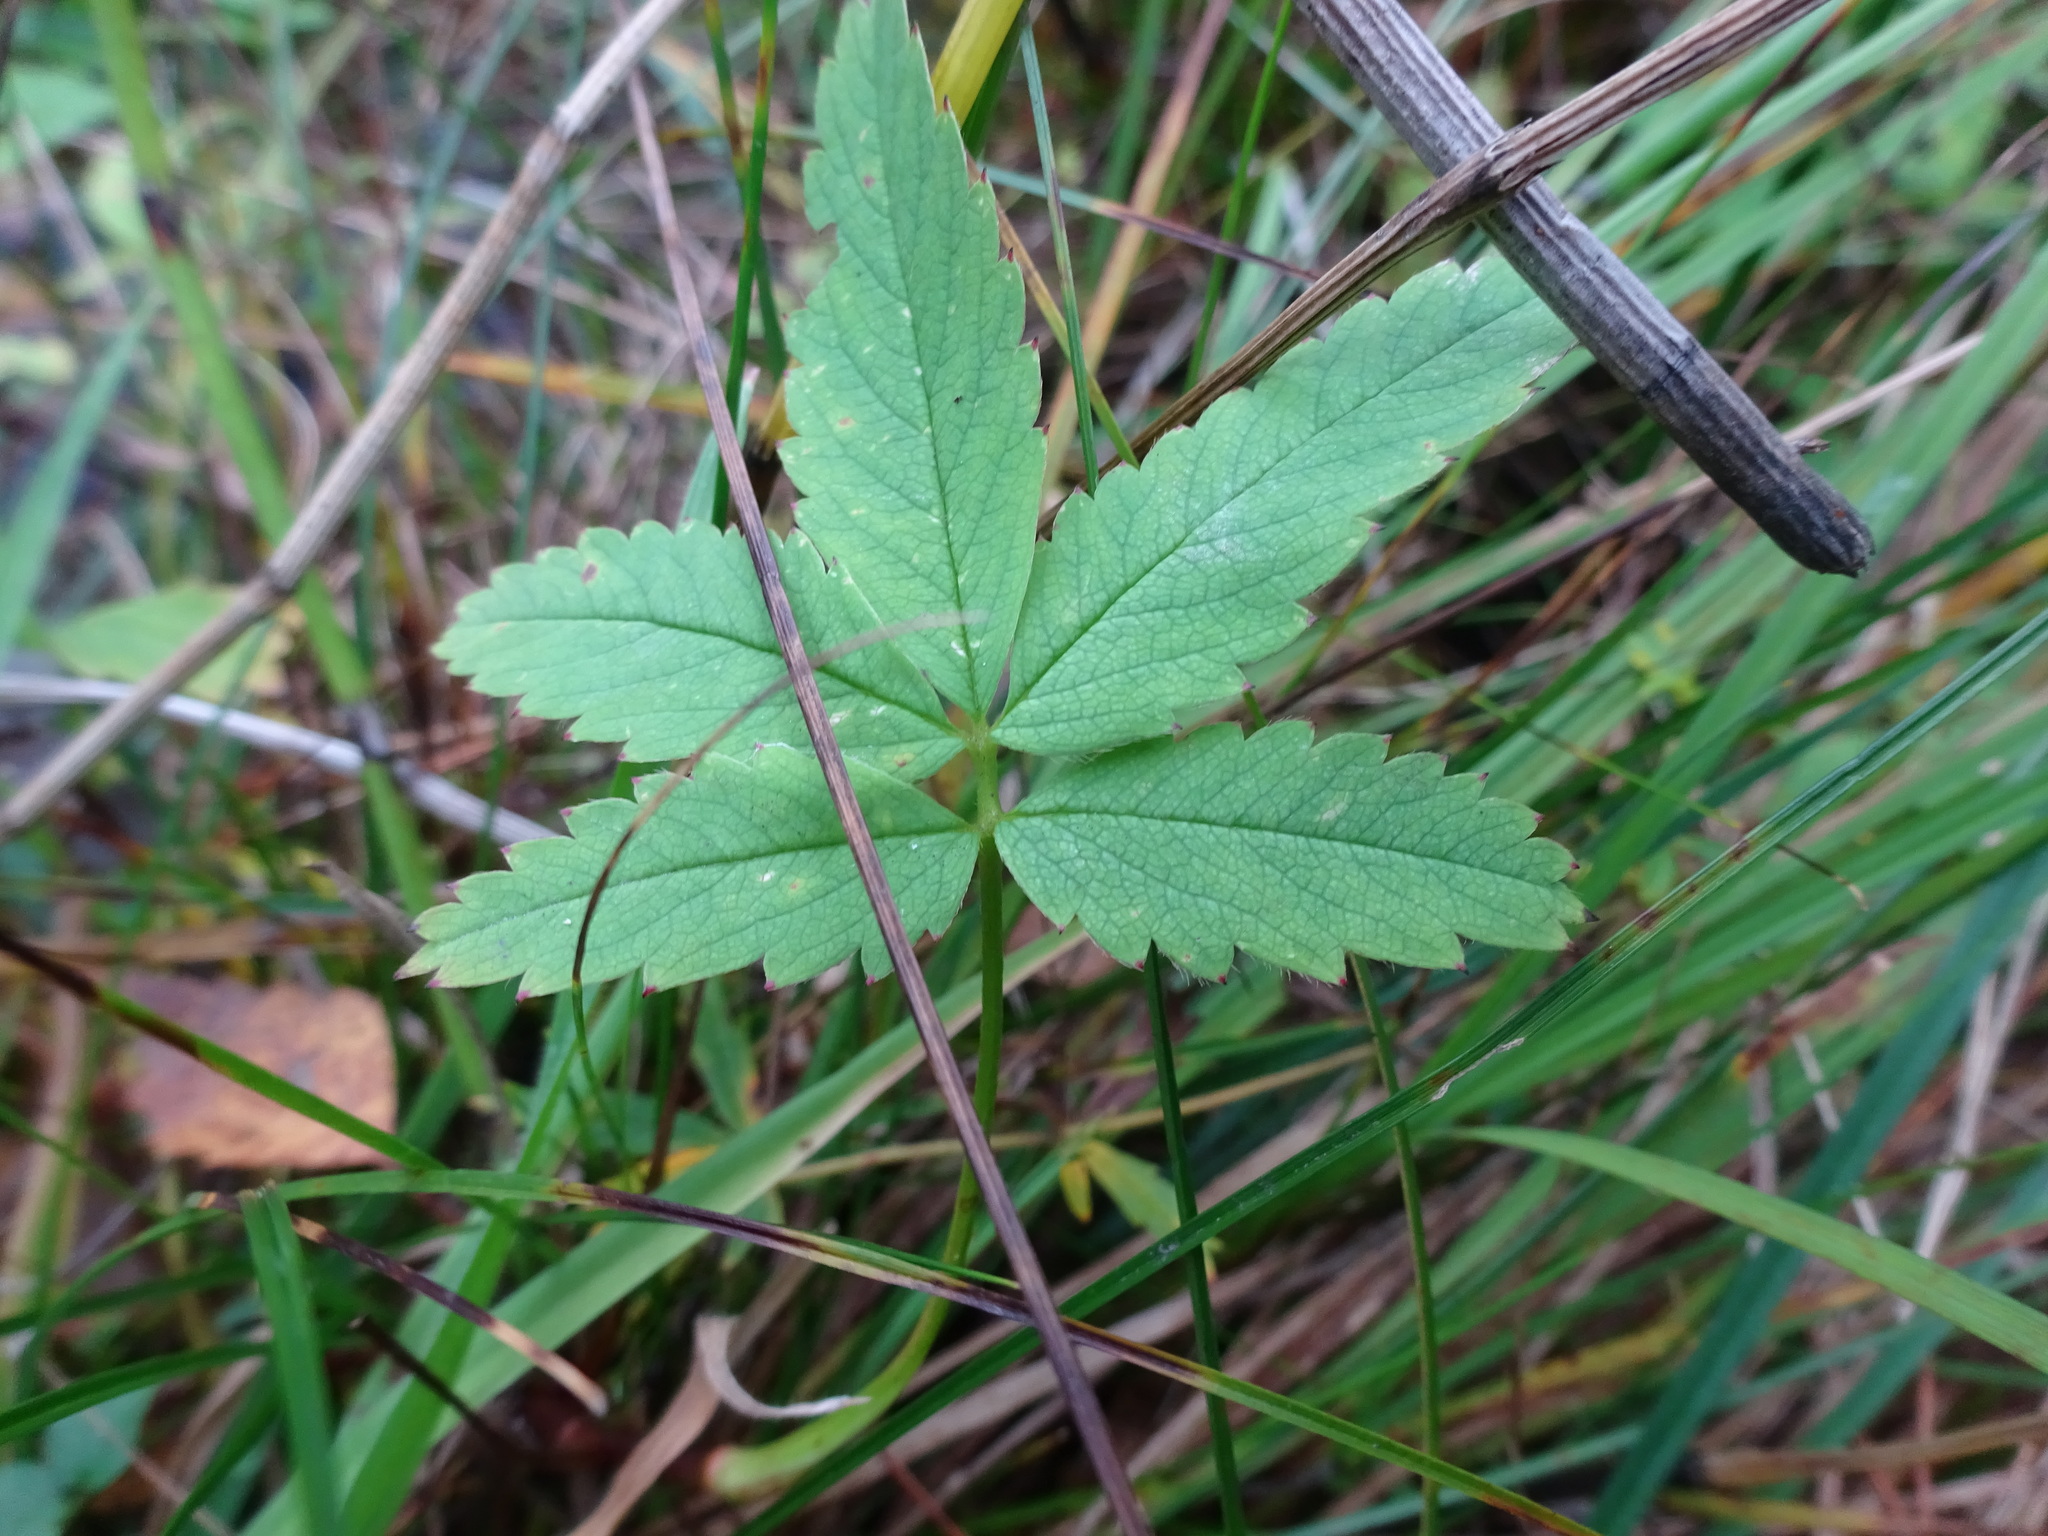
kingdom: Plantae
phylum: Tracheophyta
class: Magnoliopsida
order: Rosales
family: Rosaceae
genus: Comarum
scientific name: Comarum palustre
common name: Marsh cinquefoil
